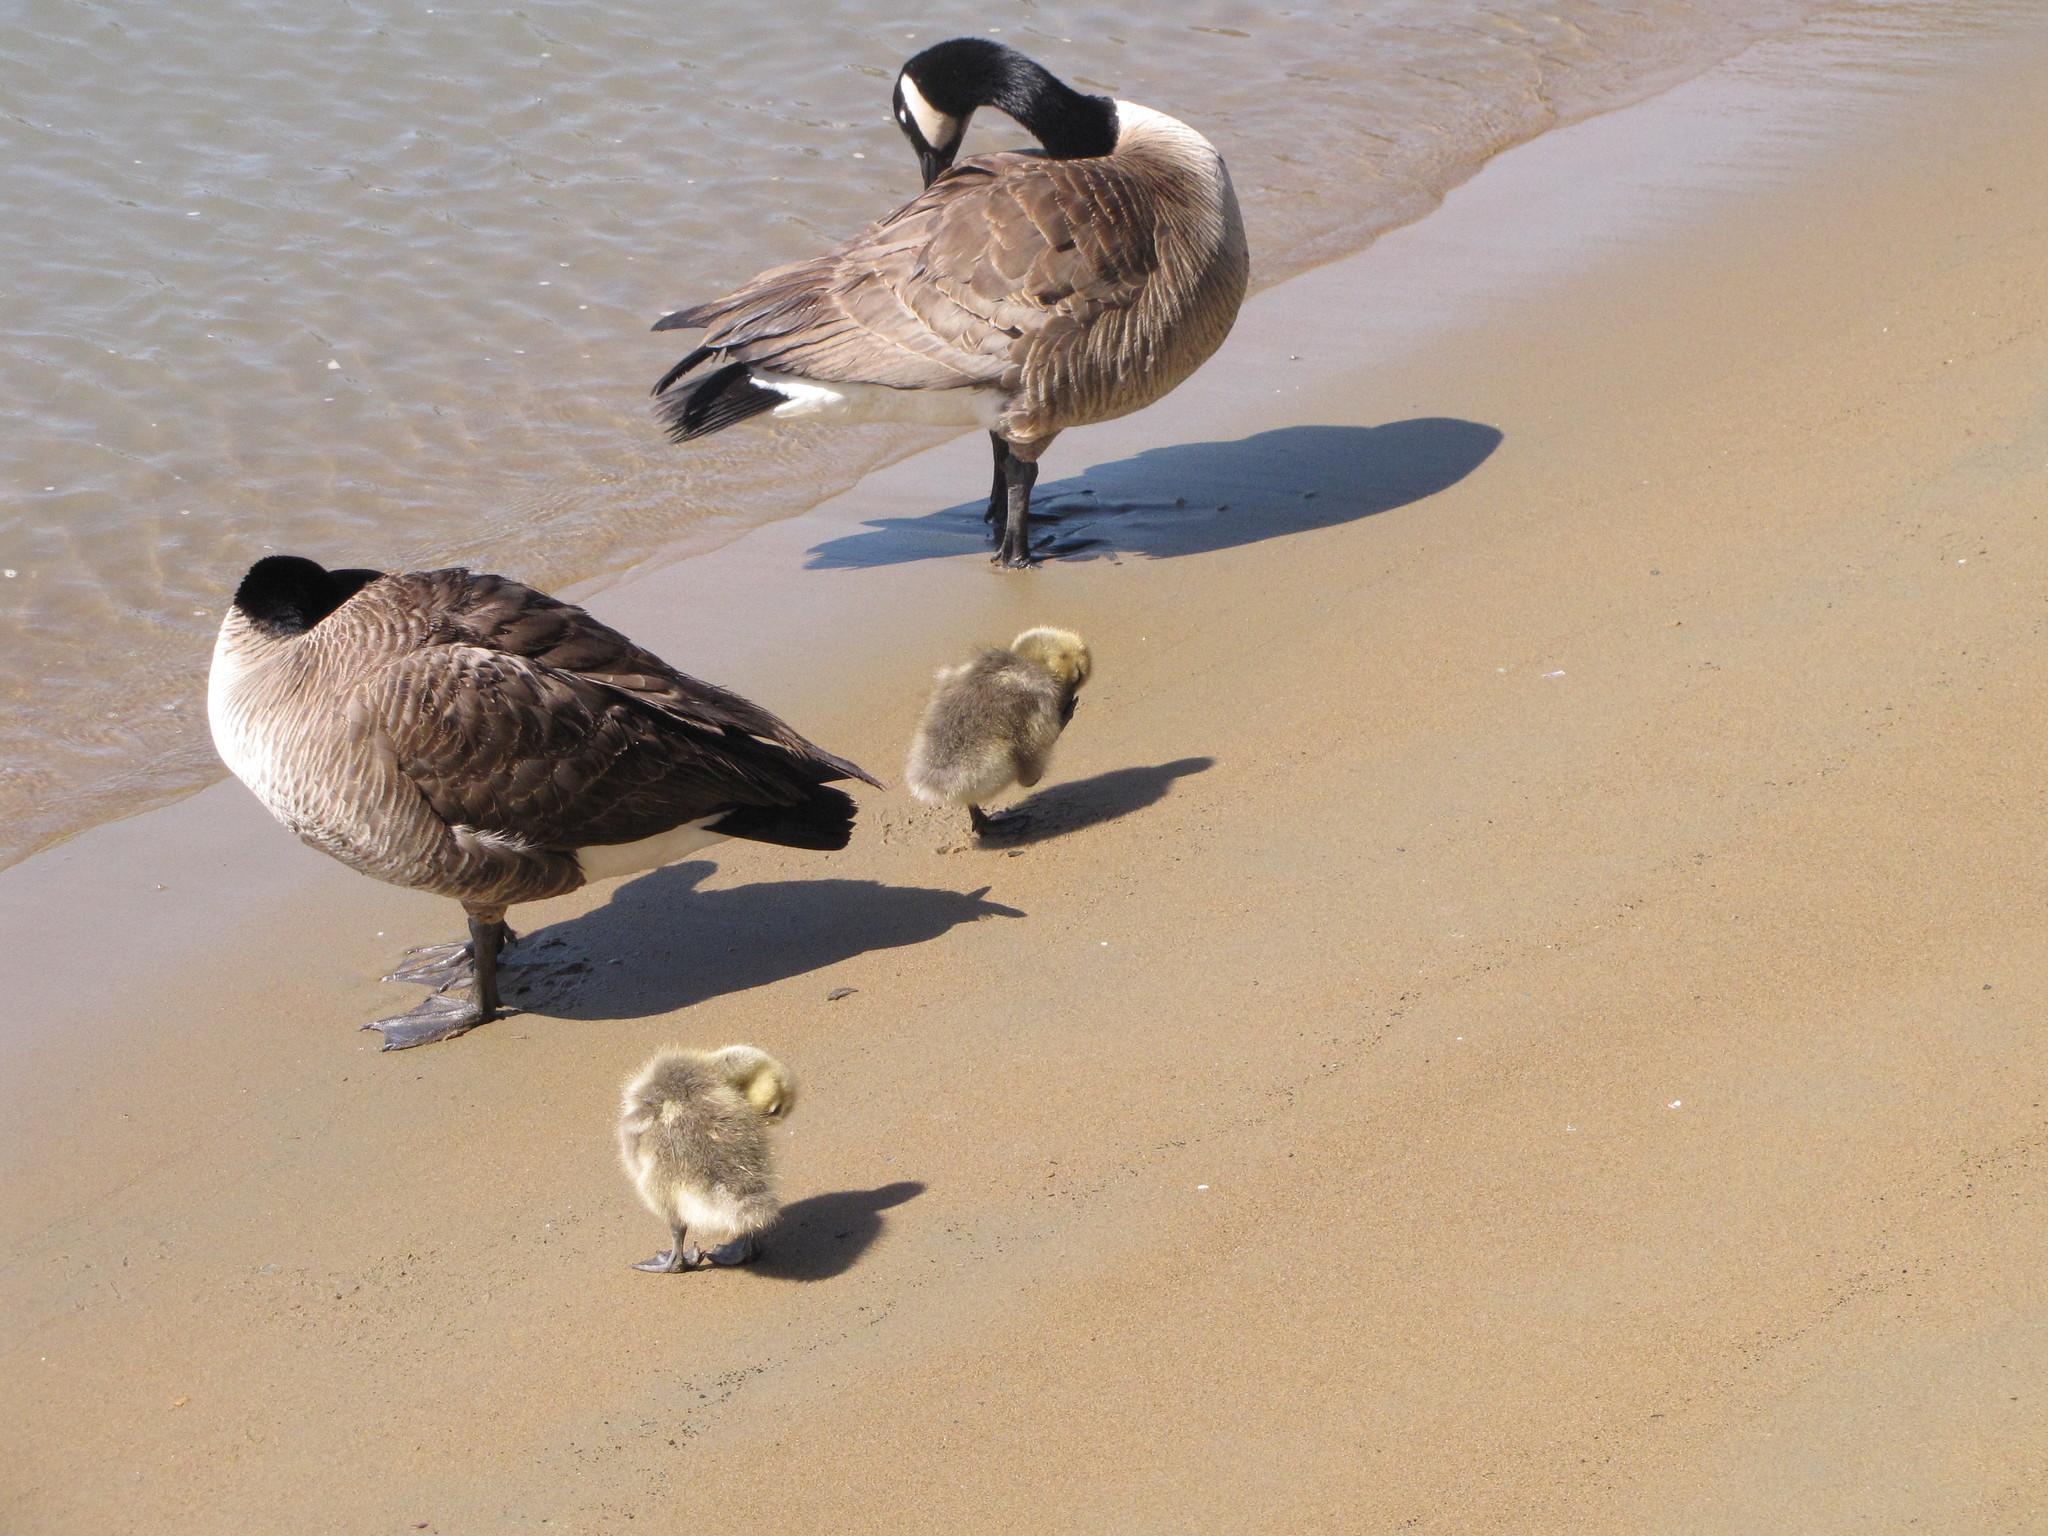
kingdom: Animalia
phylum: Chordata
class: Aves
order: Anseriformes
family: Anatidae
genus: Branta
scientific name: Branta canadensis
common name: Canada goose
